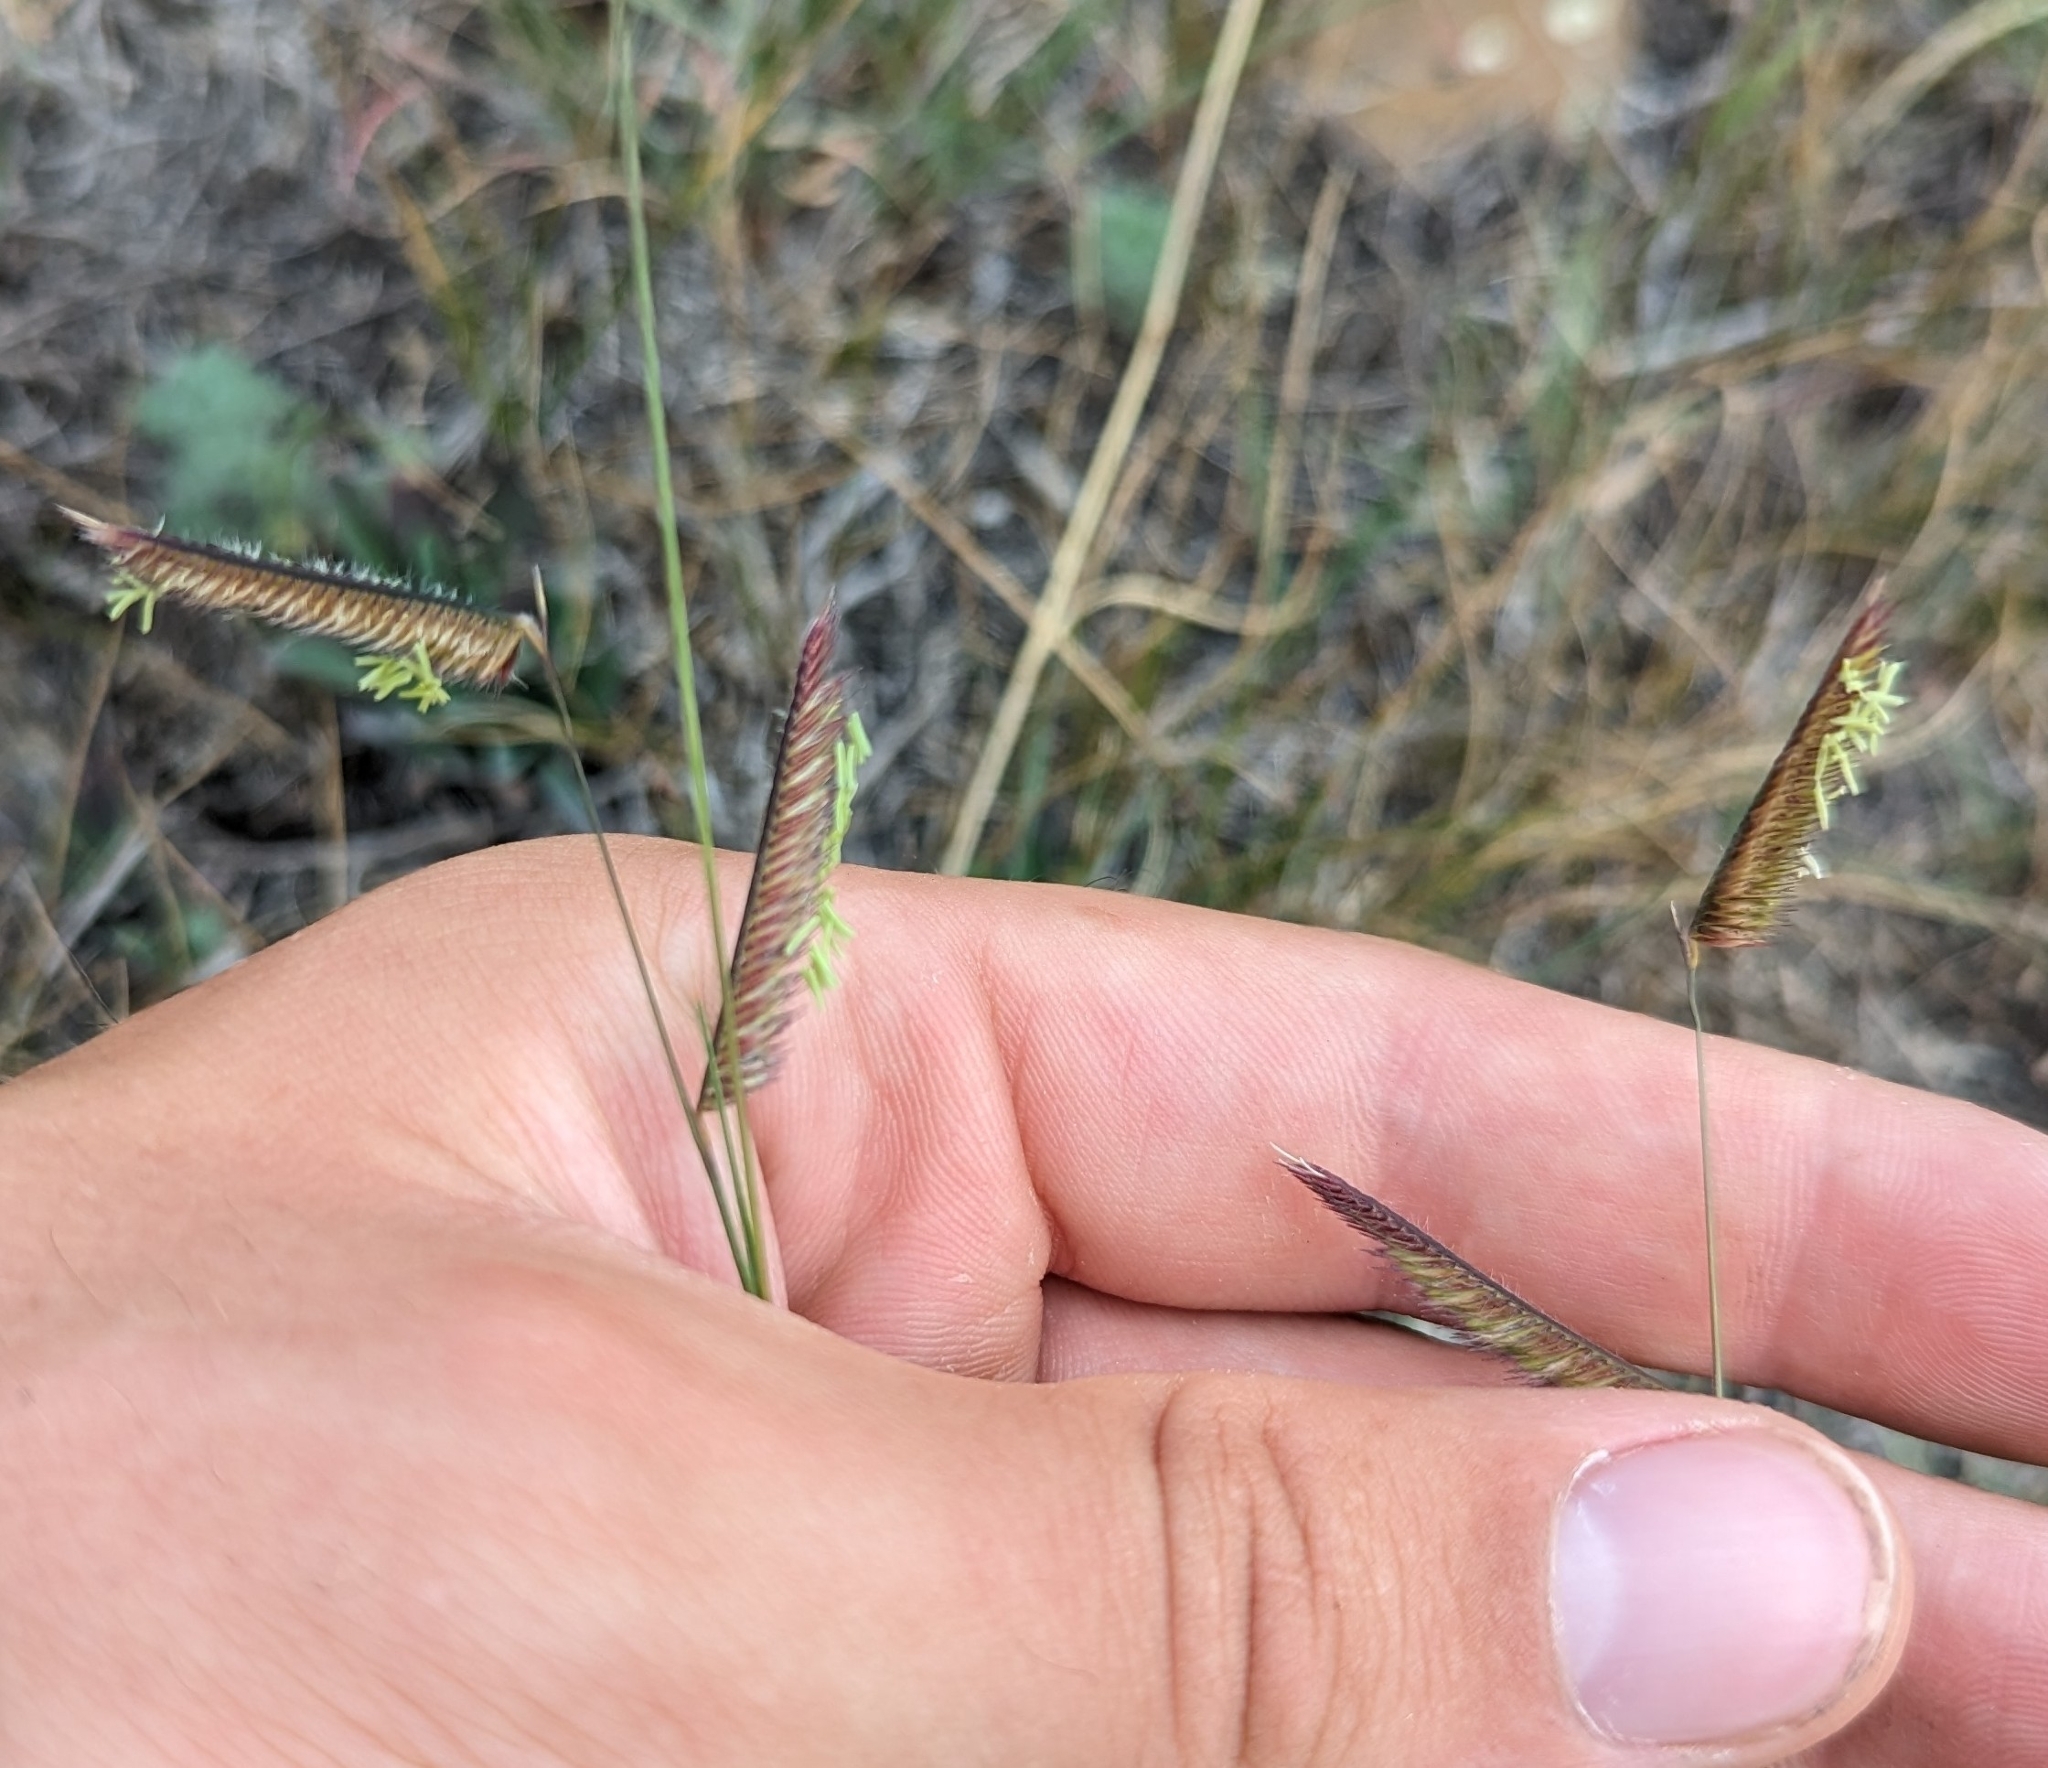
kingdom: Plantae
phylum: Tracheophyta
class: Liliopsida
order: Poales
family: Poaceae
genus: Bouteloua
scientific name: Bouteloua gracilis
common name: Blue grama
